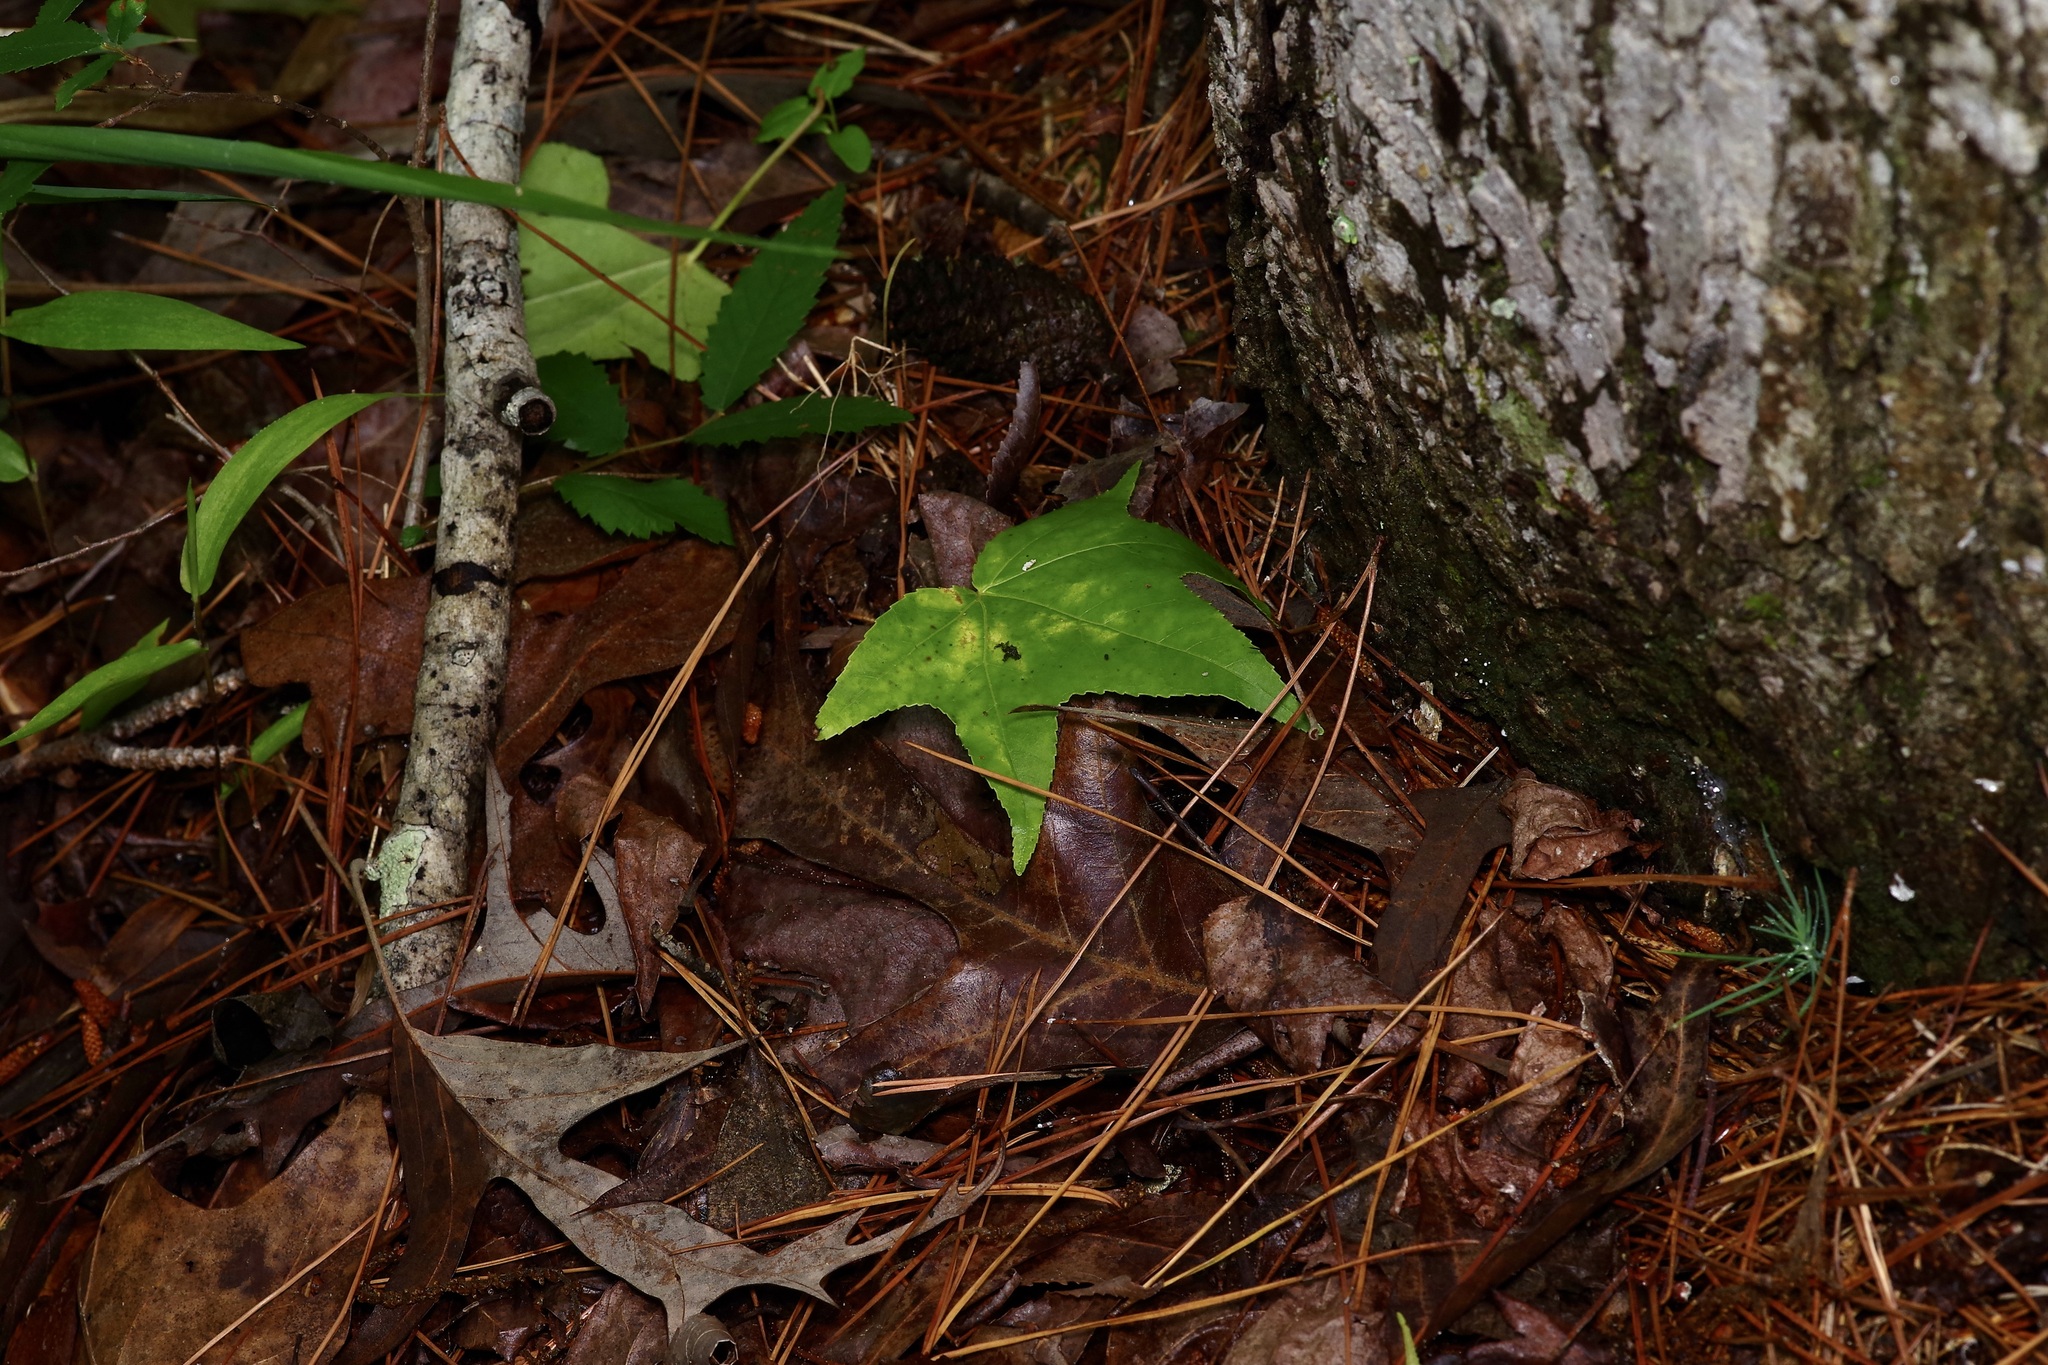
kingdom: Plantae
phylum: Tracheophyta
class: Magnoliopsida
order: Saxifragales
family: Altingiaceae
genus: Liquidambar
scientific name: Liquidambar styraciflua
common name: Sweet gum
